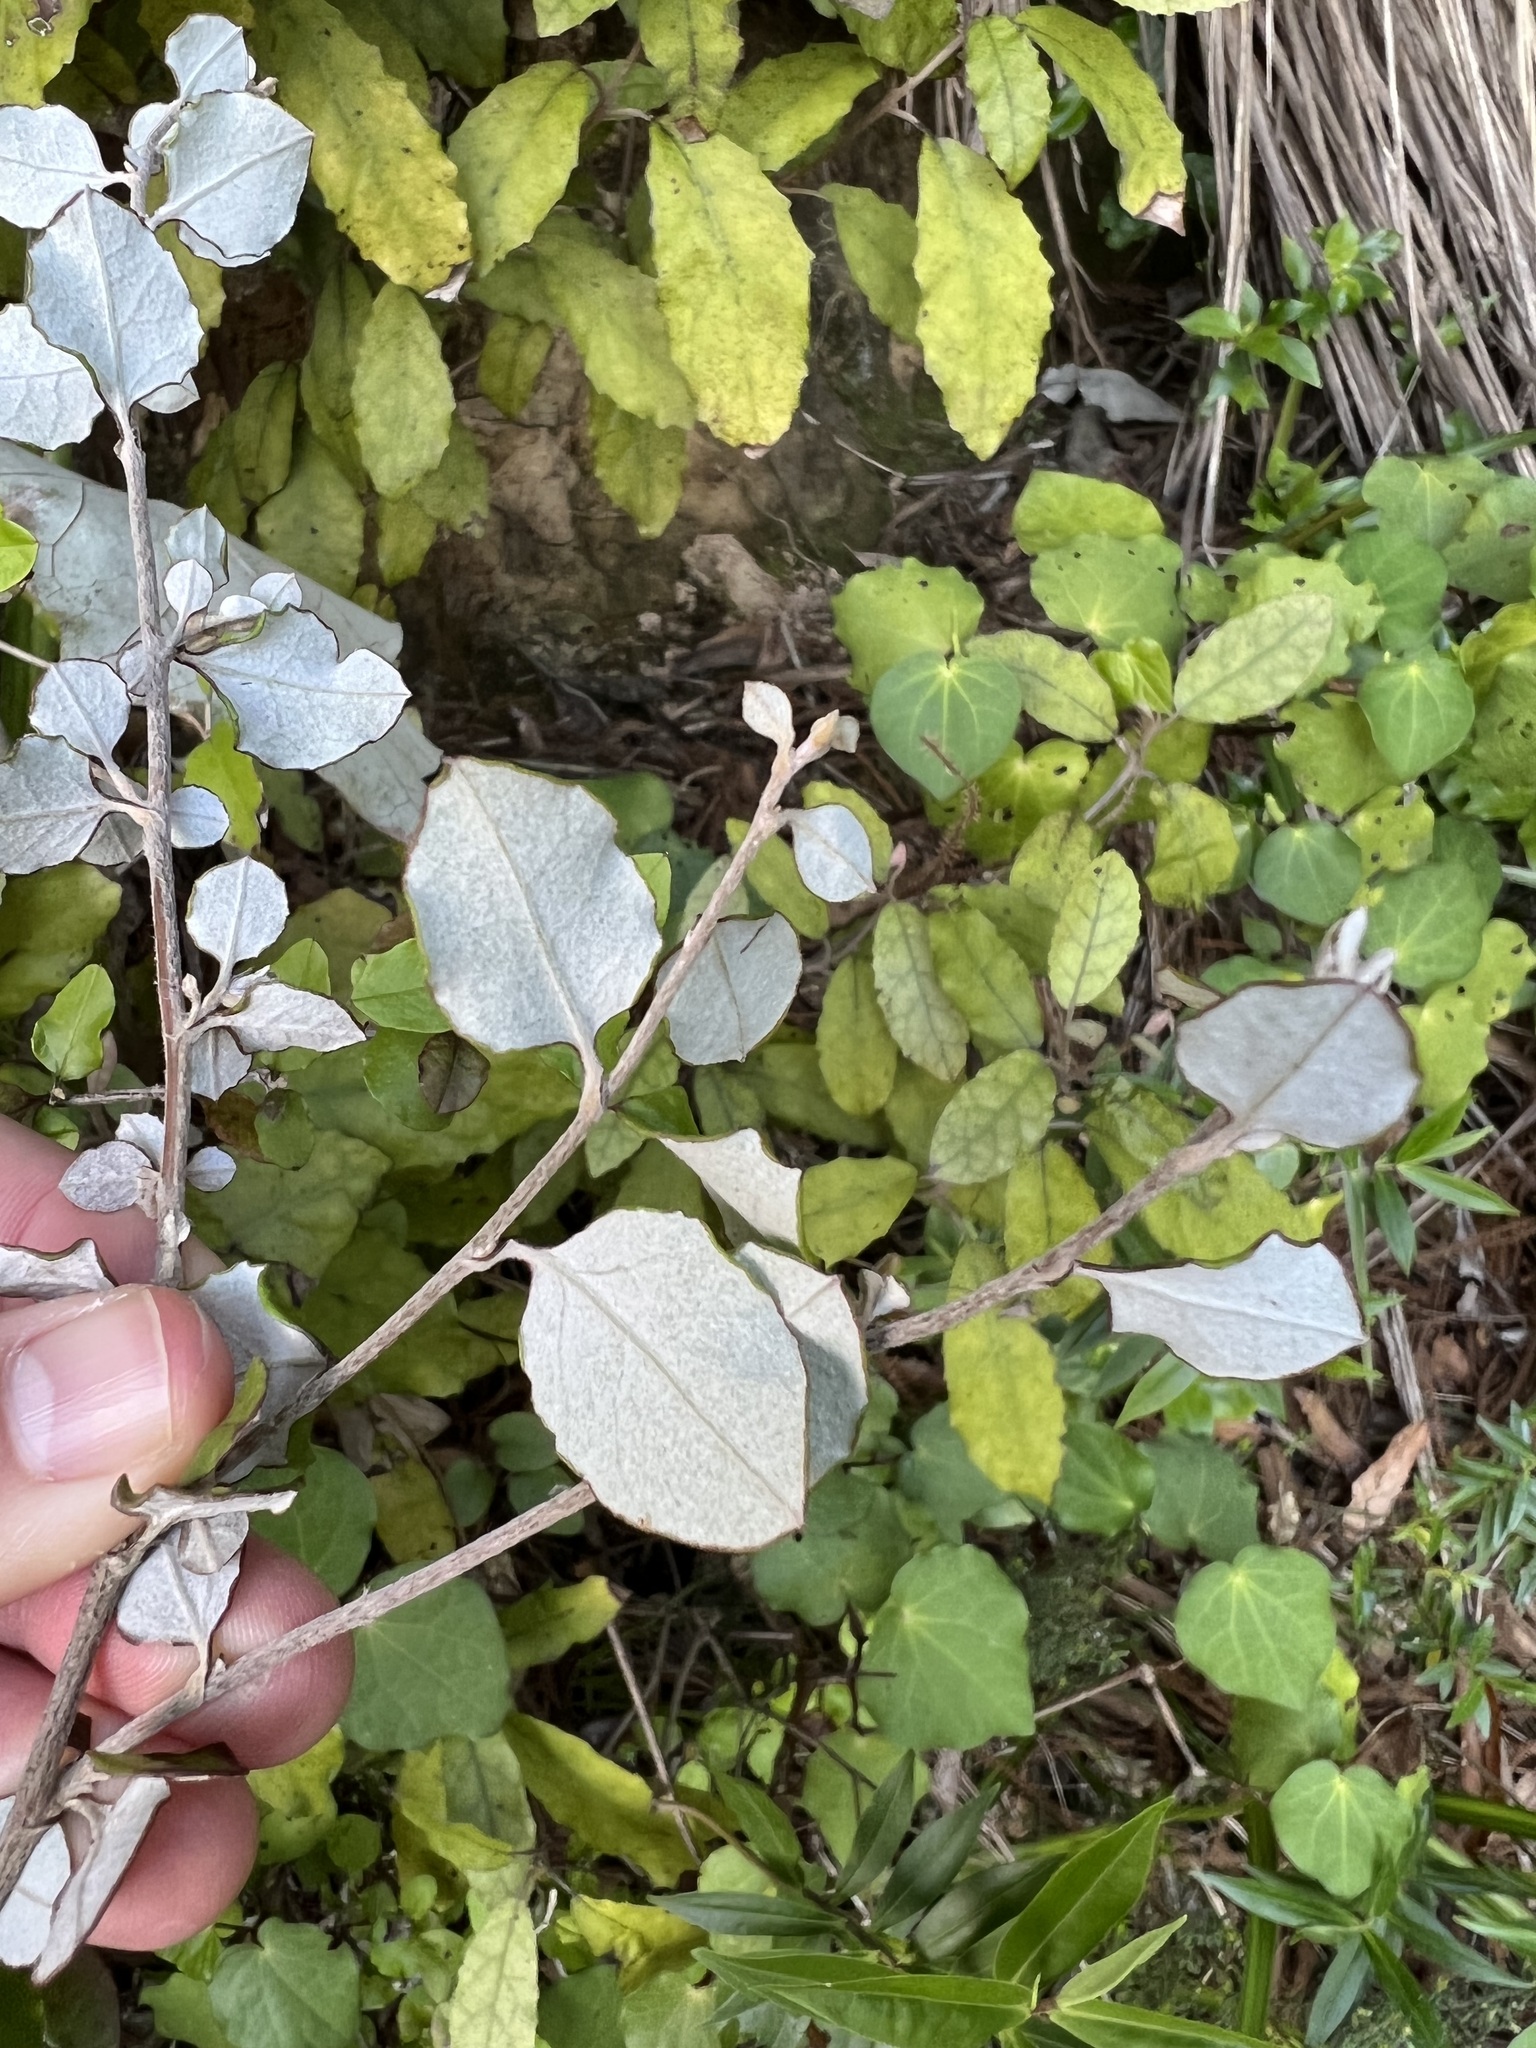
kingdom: Plantae
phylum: Tracheophyta
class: Magnoliopsida
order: Asterales
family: Asteraceae
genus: Ozothamnus
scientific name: Ozothamnus glomeratus
